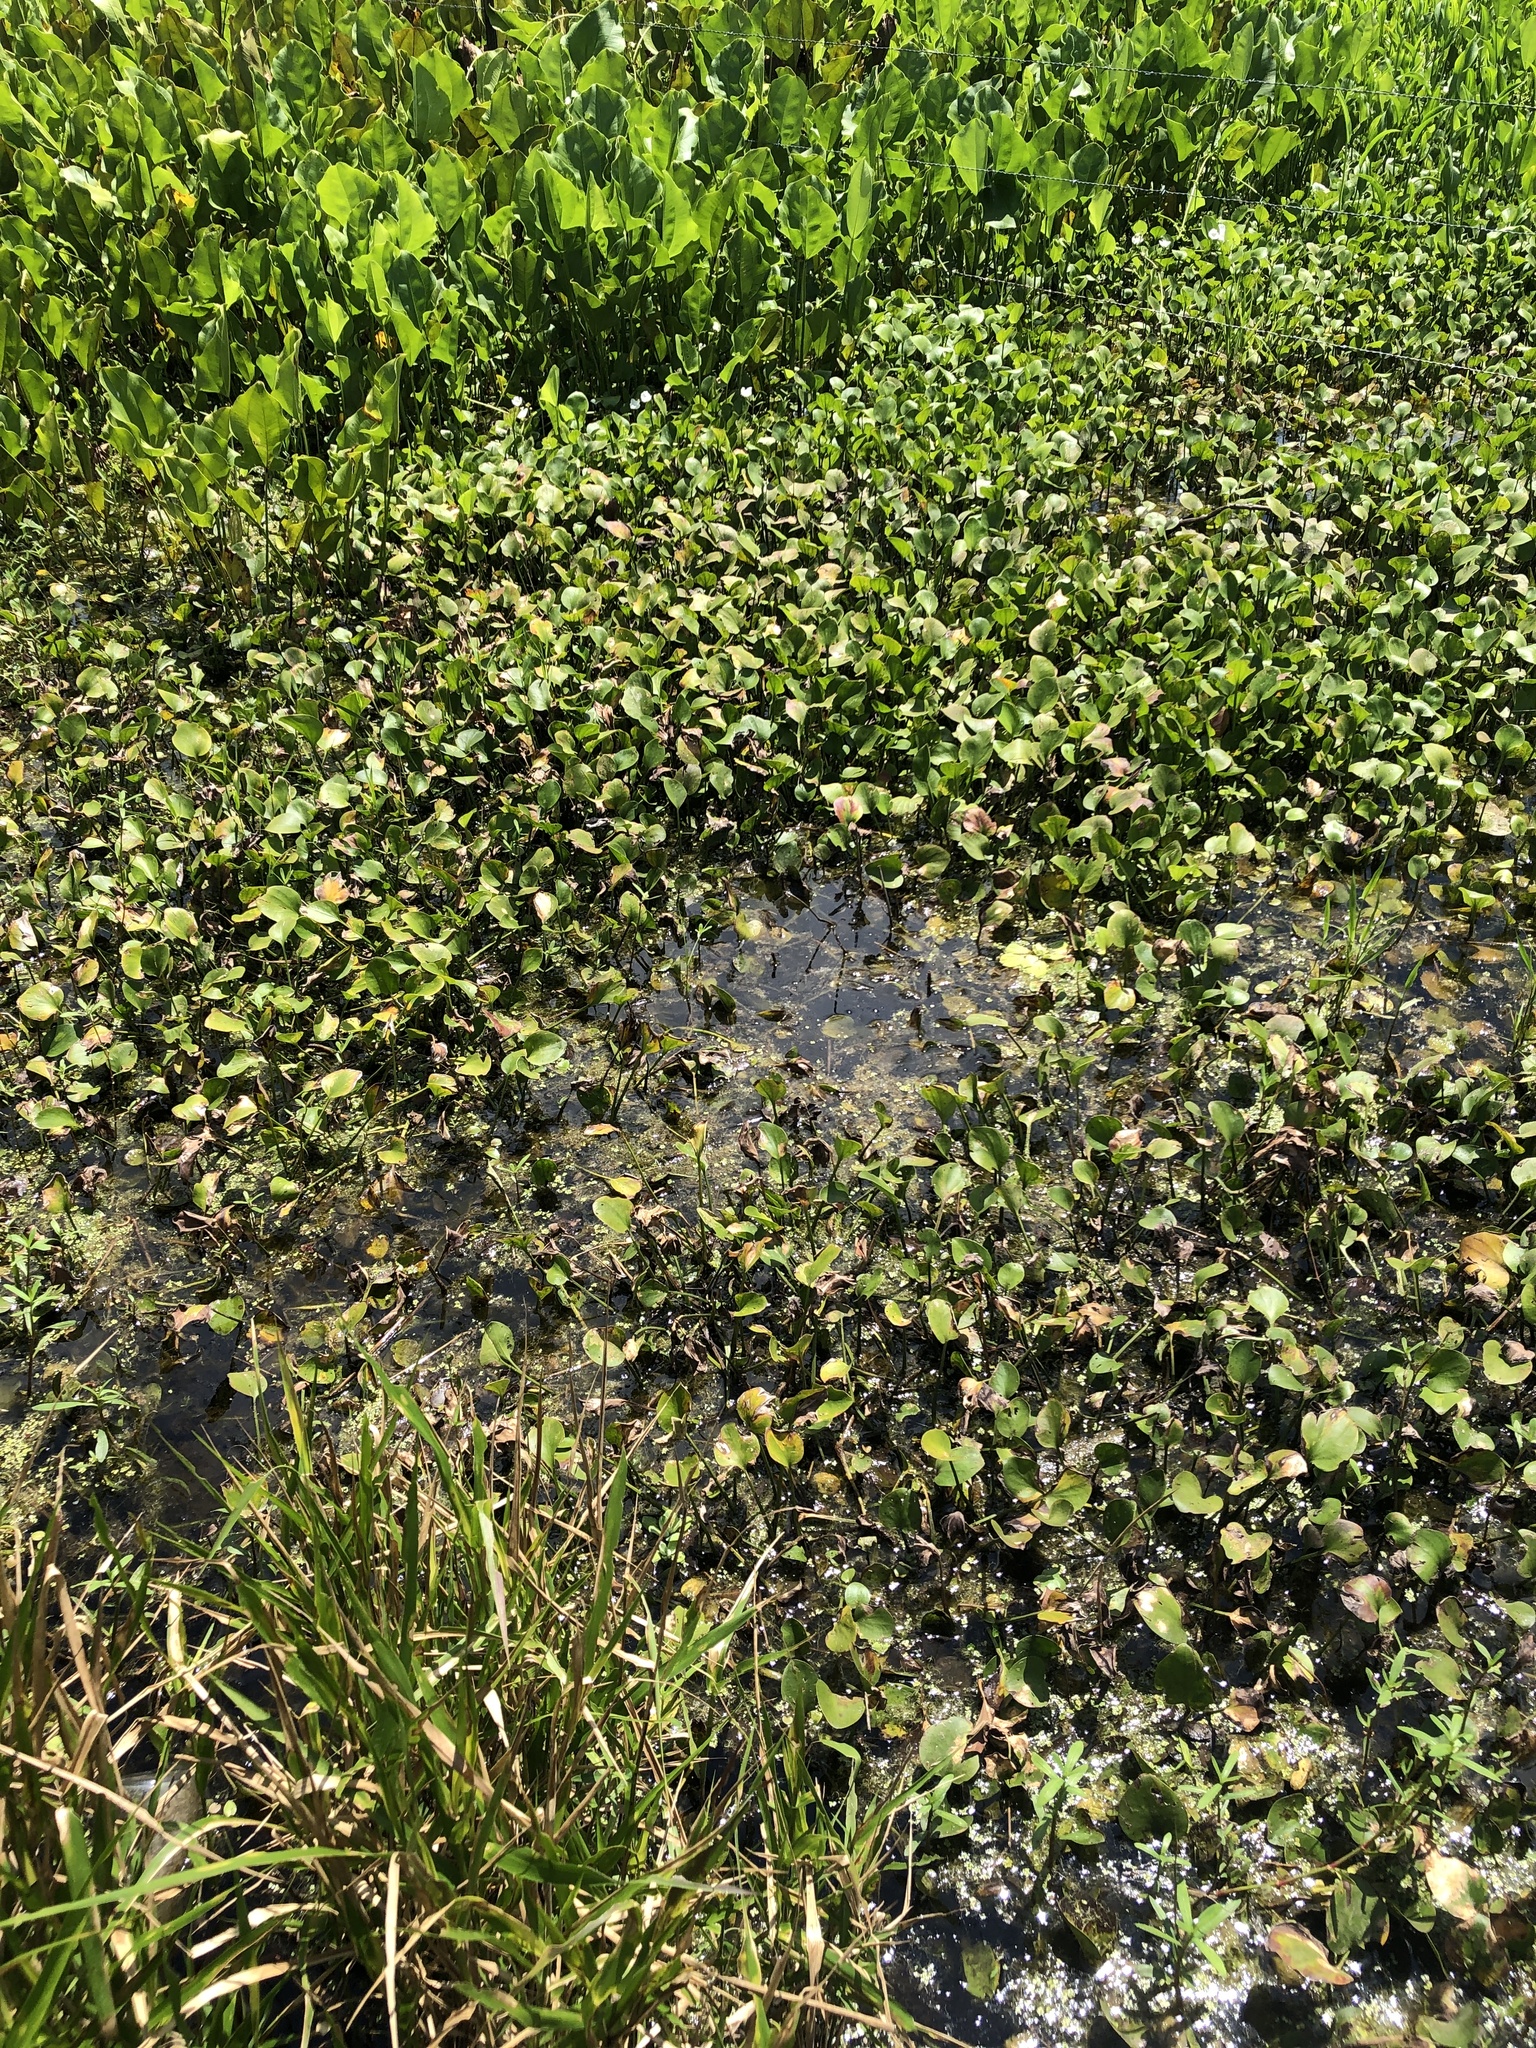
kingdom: Plantae
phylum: Tracheophyta
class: Liliopsida
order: Alismatales
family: Hydrocharitaceae
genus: Hydrocharis
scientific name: Hydrocharis spongia
